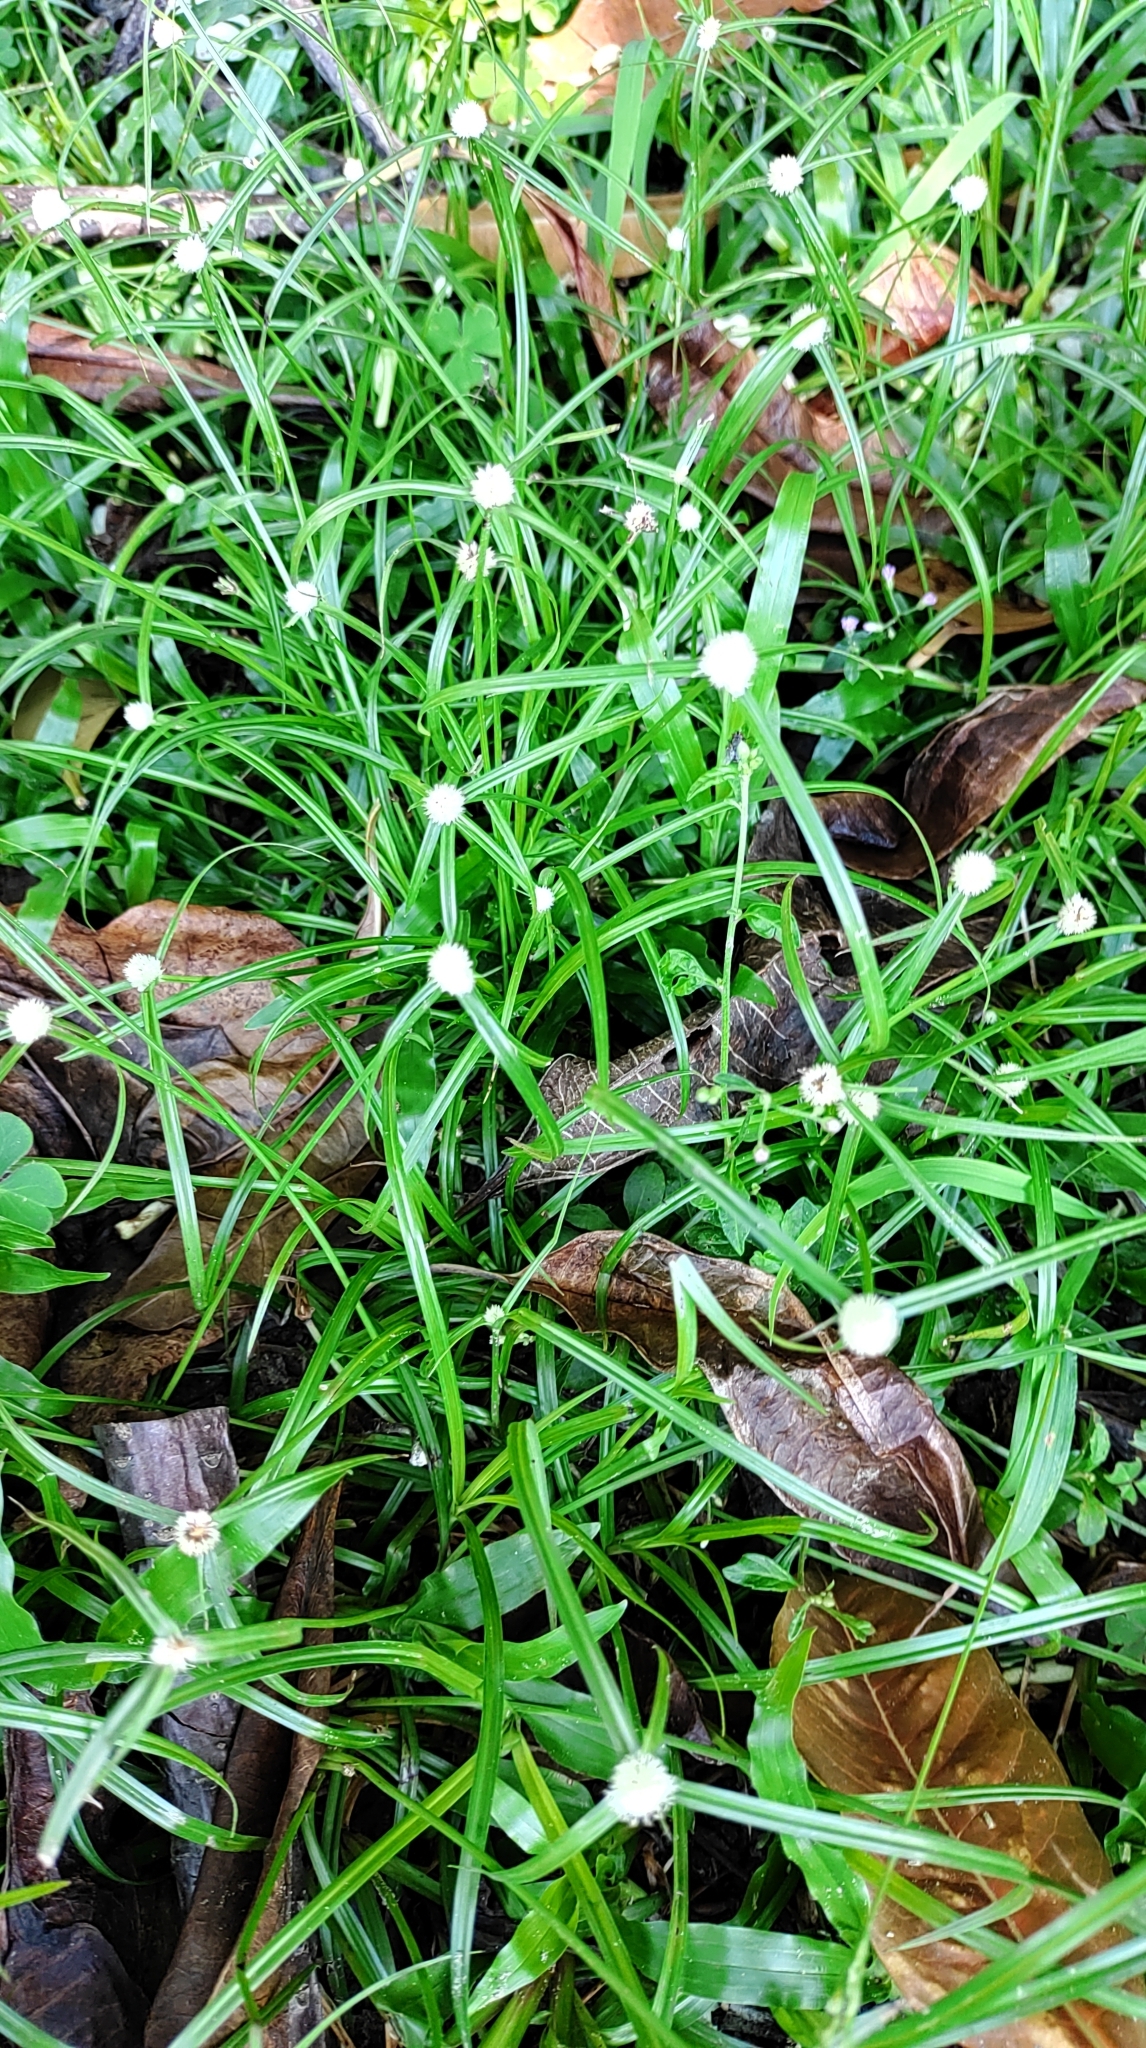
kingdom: Plantae
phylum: Tracheophyta
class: Liliopsida
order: Poales
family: Cyperaceae
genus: Cyperus
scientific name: Cyperus mindorensis
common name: Flatsedge
